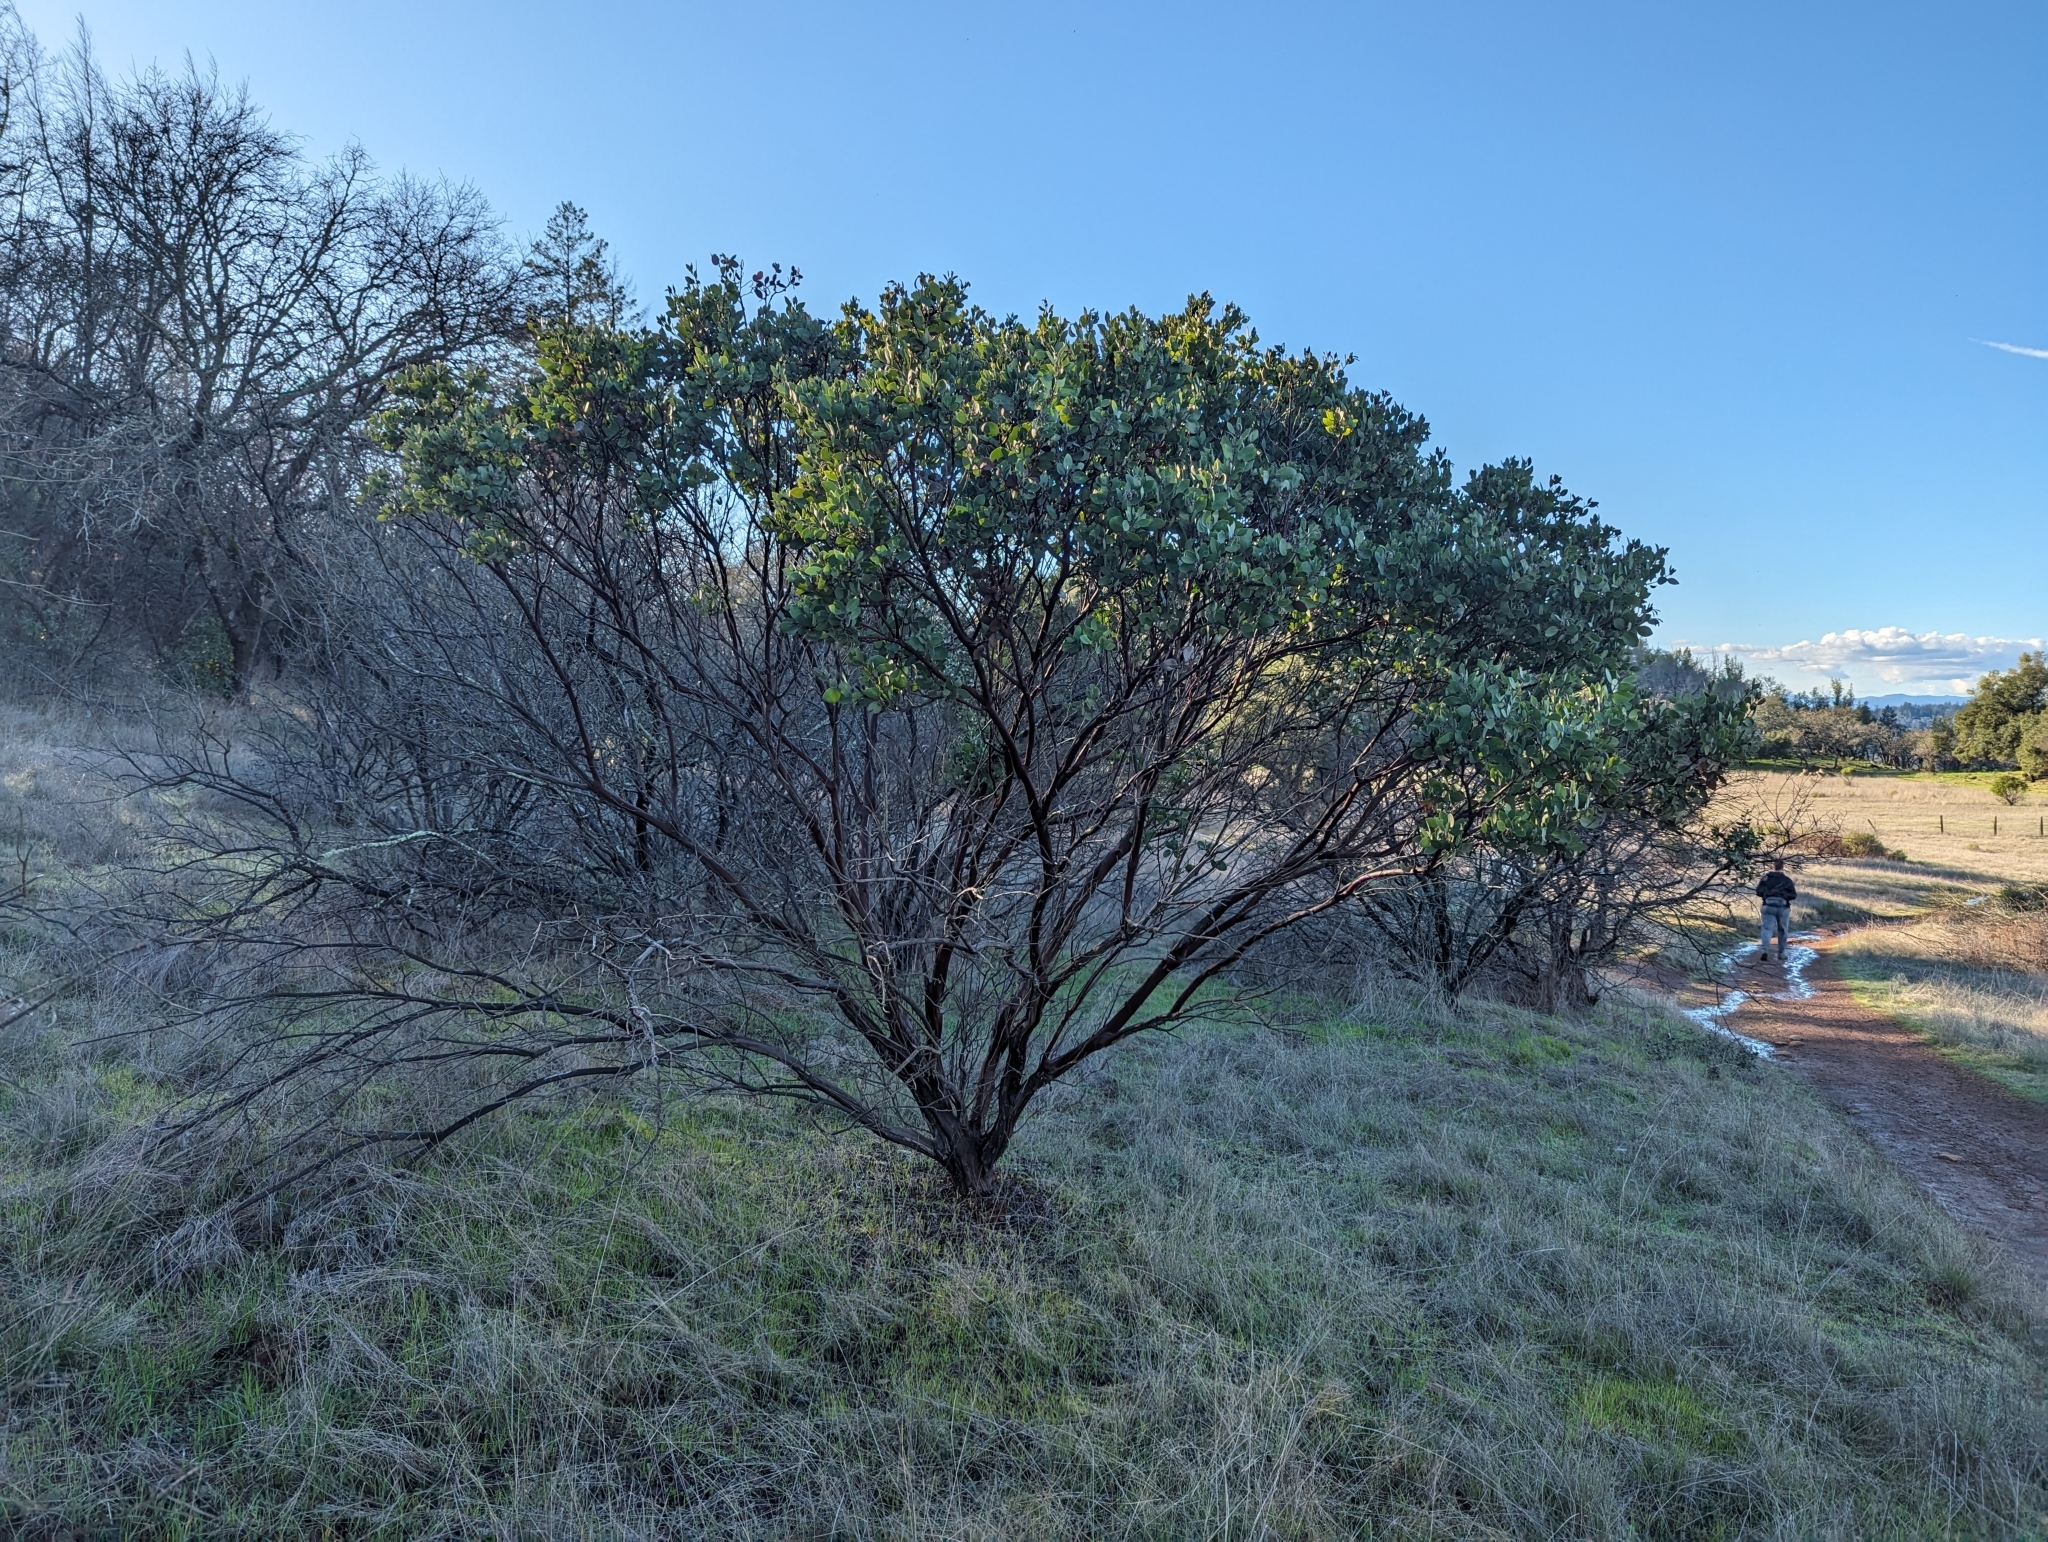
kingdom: Plantae
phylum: Tracheophyta
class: Magnoliopsida
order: Ericales
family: Ericaceae
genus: Arctostaphylos
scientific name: Arctostaphylos manzanita
